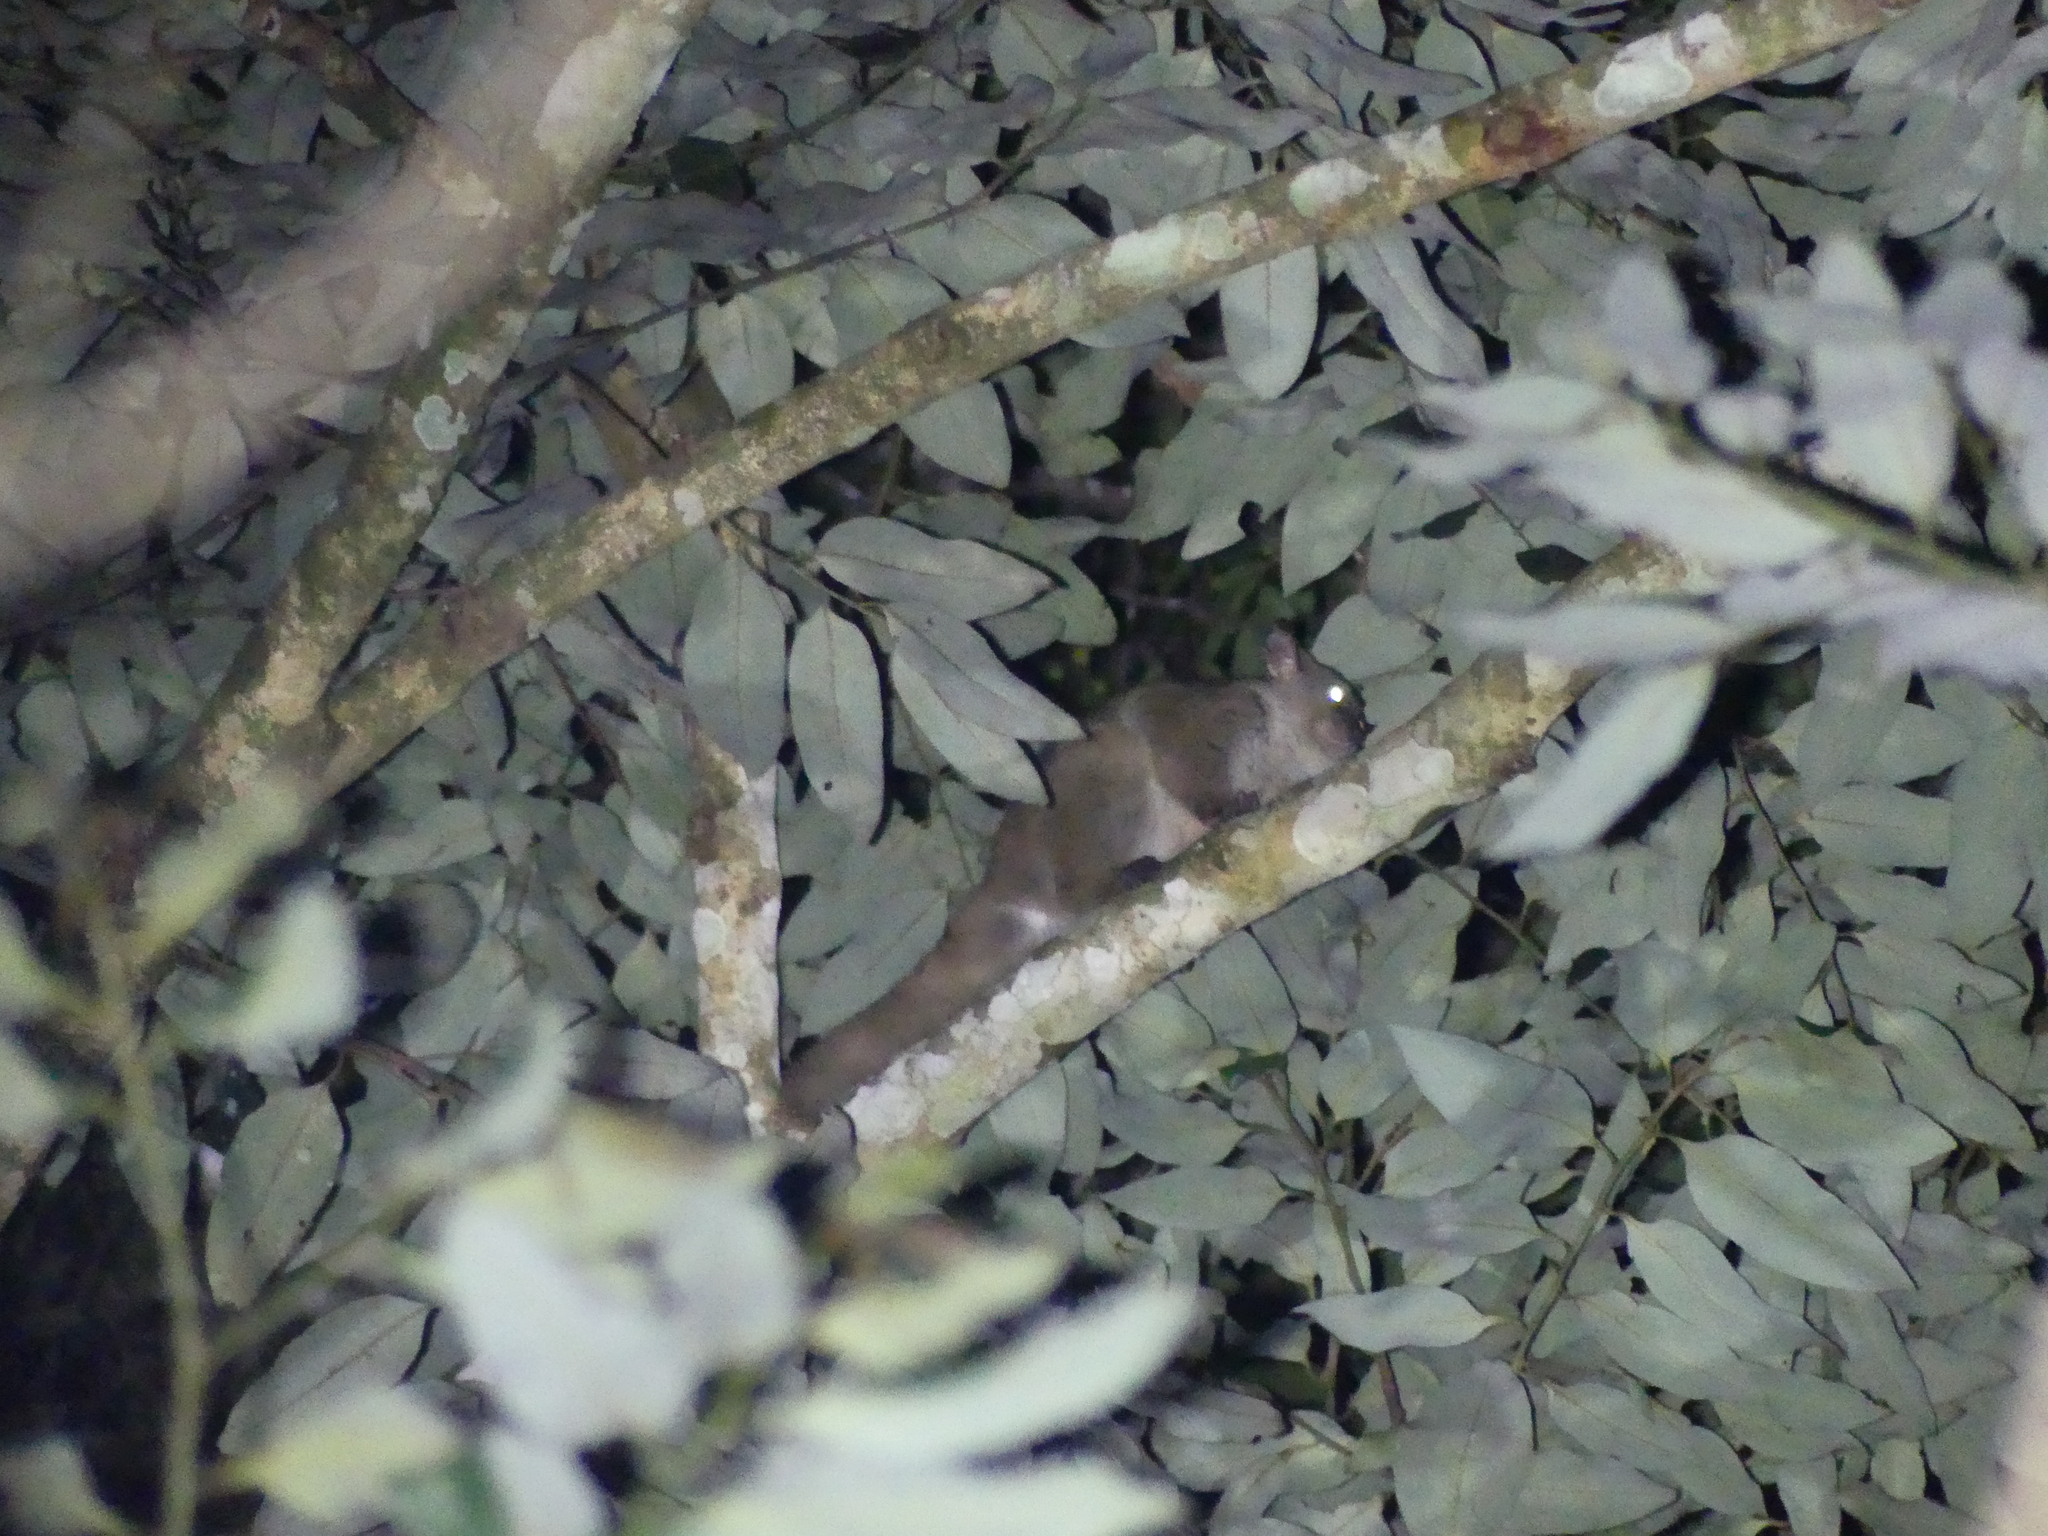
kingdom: Animalia
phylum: Chordata
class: Mammalia
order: Primates
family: Galagidae
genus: Otolemur
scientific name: Otolemur garnettii
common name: Northern greater galago
